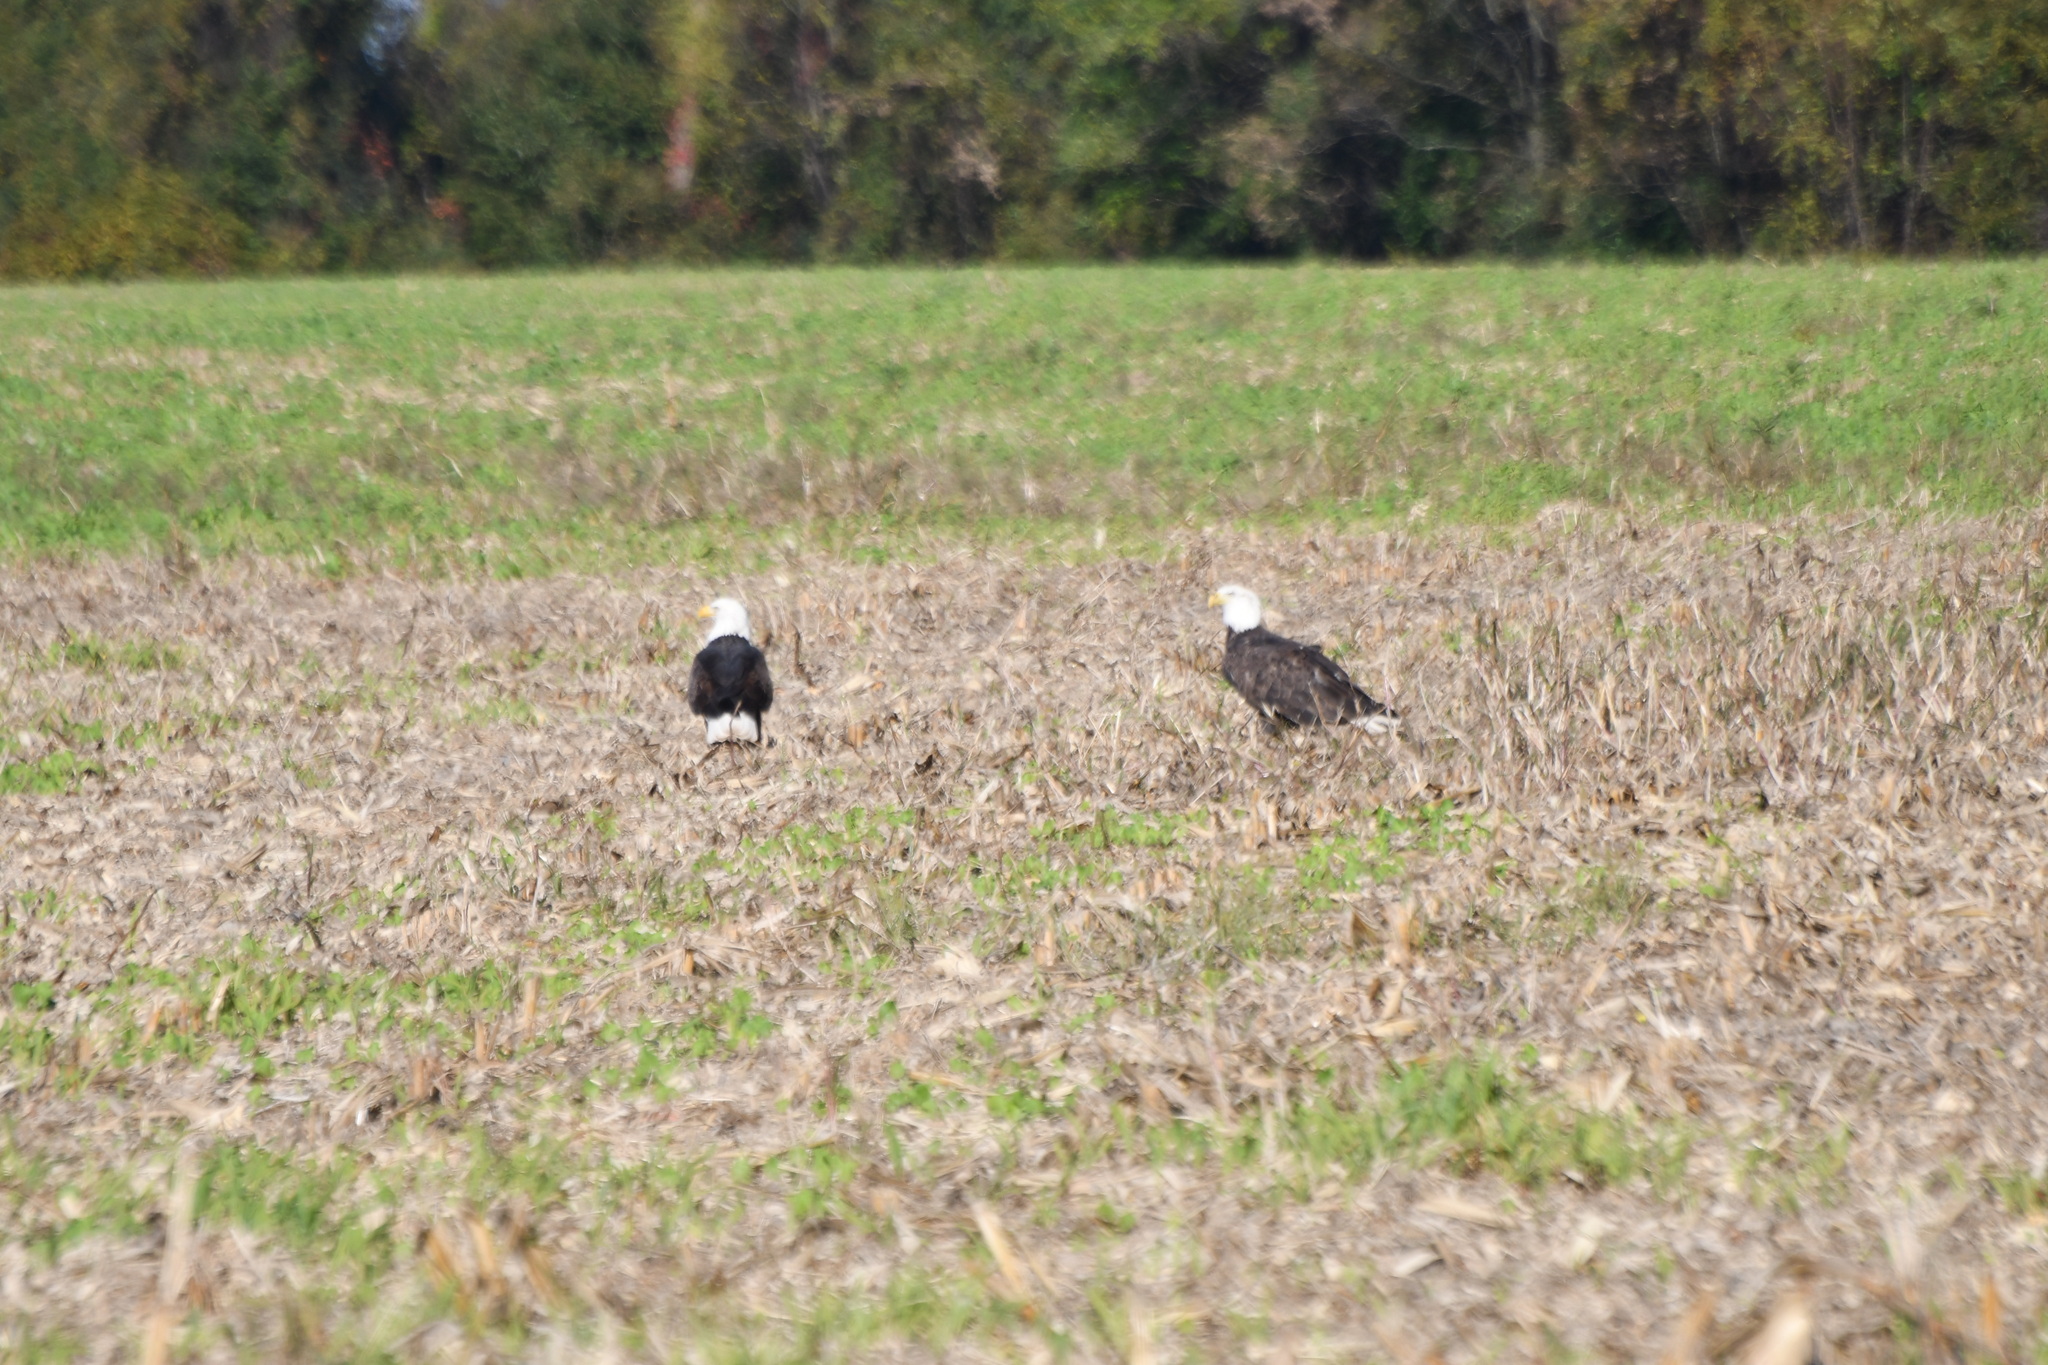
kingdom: Animalia
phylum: Chordata
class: Aves
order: Accipitriformes
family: Accipitridae
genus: Haliaeetus
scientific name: Haliaeetus leucocephalus
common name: Bald eagle
